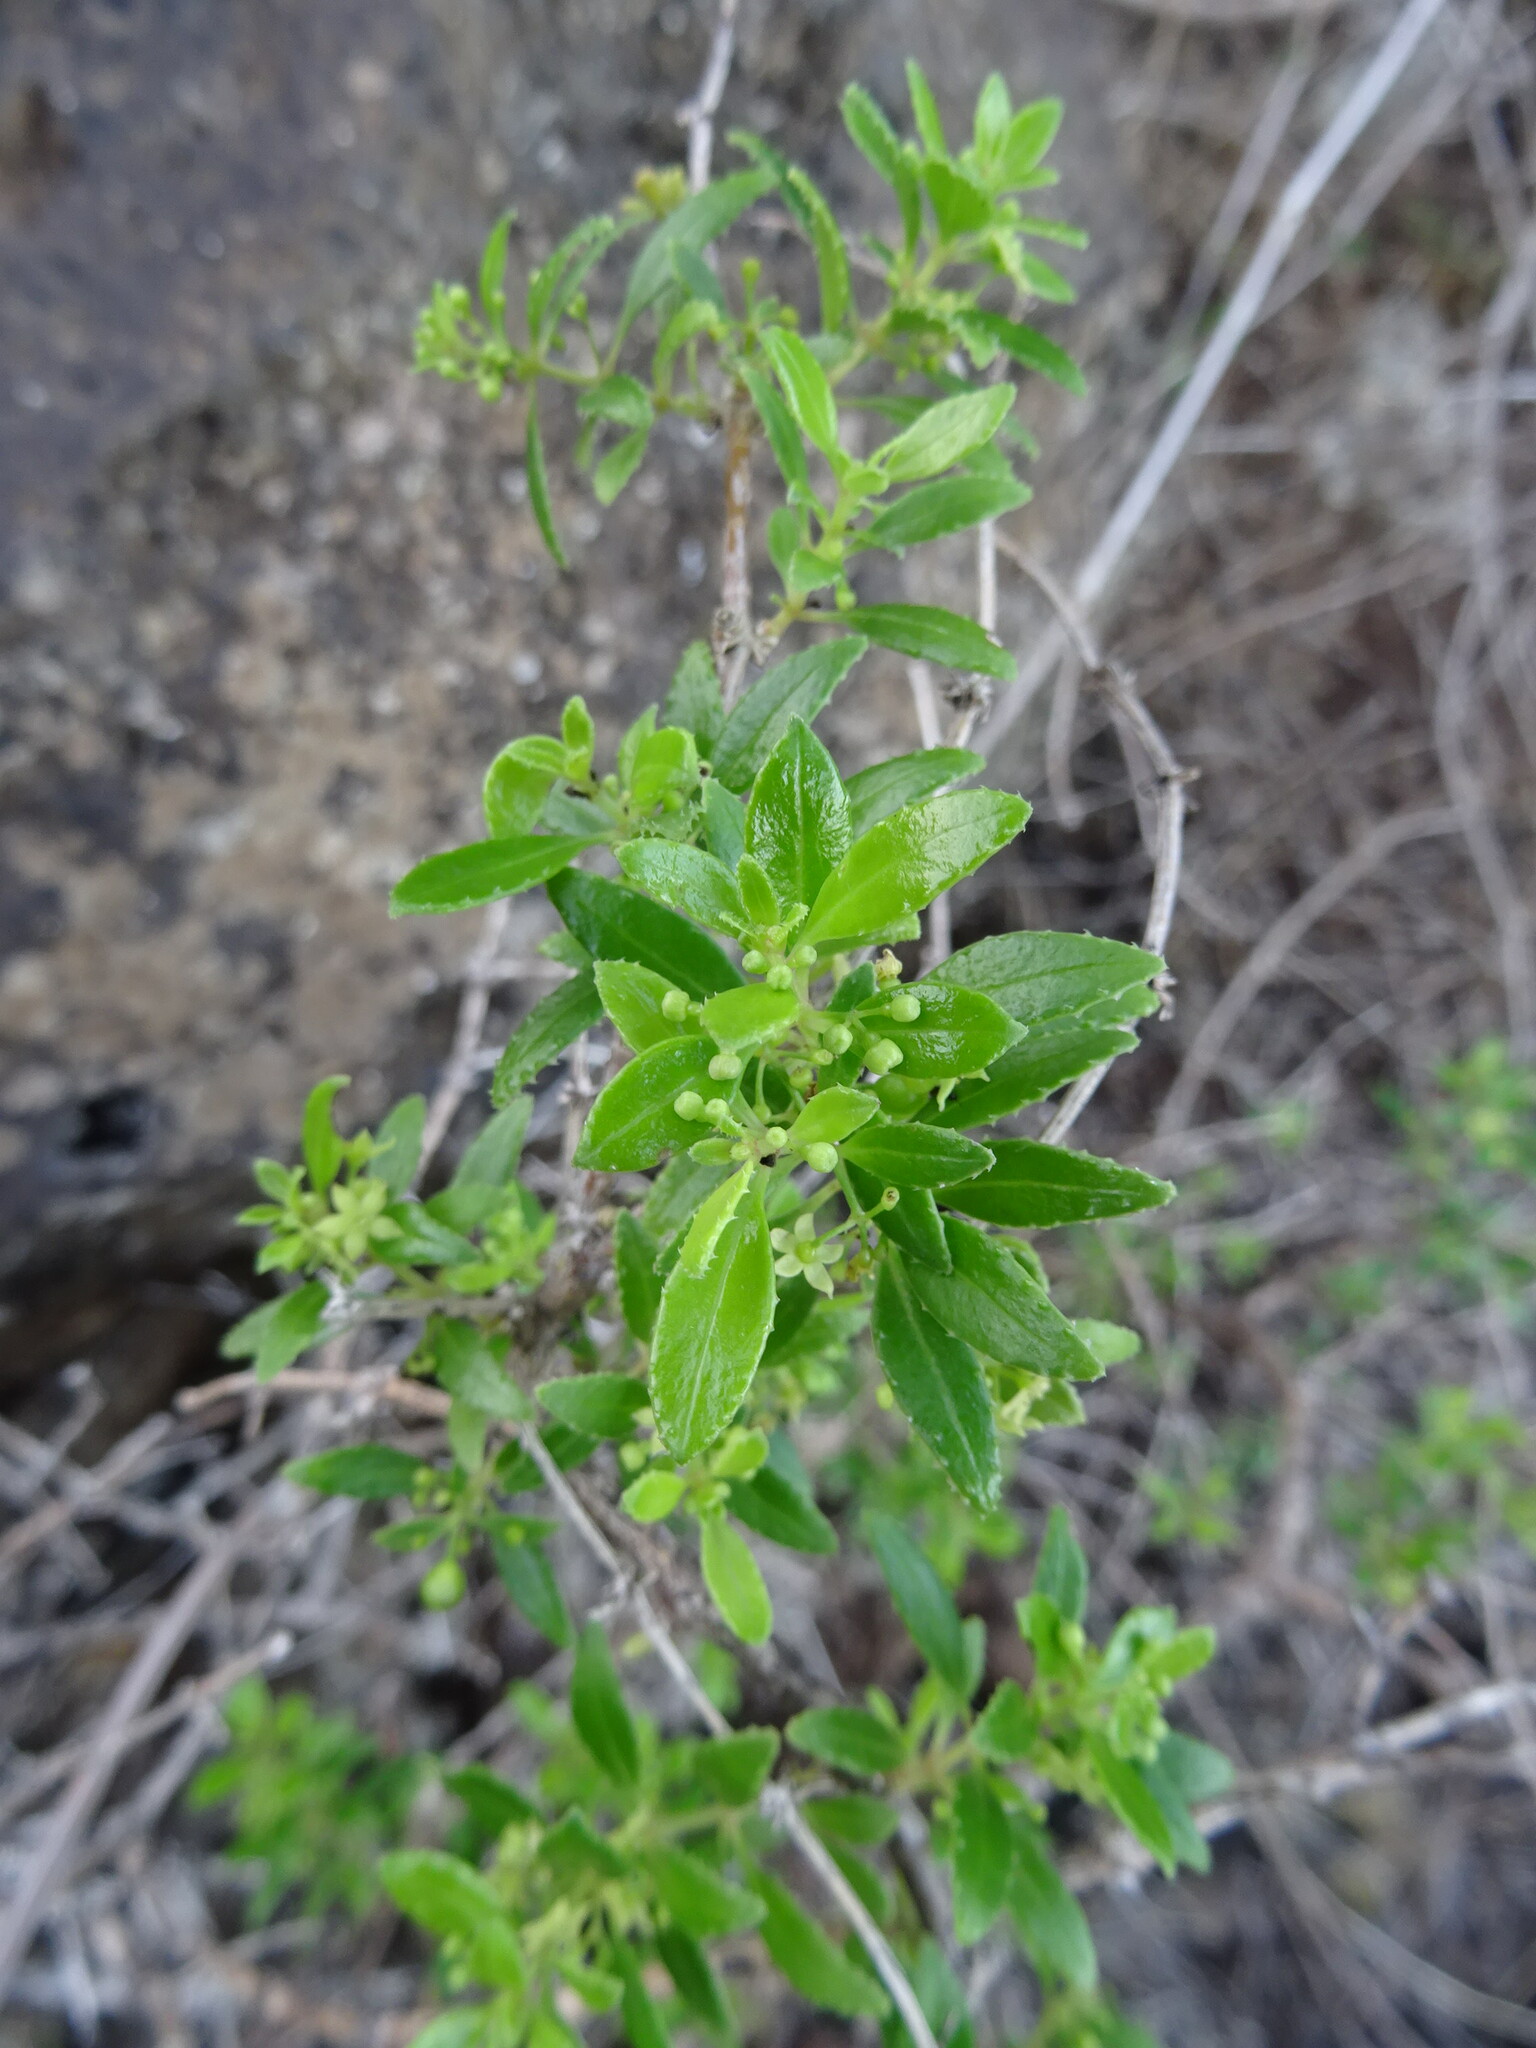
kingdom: Plantae
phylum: Tracheophyta
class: Magnoliopsida
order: Gentianales
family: Rubiaceae
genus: Rubia
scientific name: Rubia fruticosa
